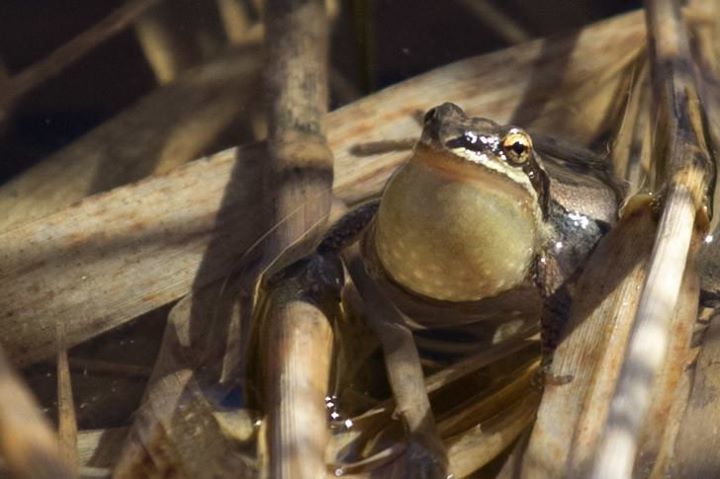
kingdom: Animalia
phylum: Chordata
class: Amphibia
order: Anura
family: Hylidae
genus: Pseudacris
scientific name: Pseudacris triseriata
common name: Western chorus frog
